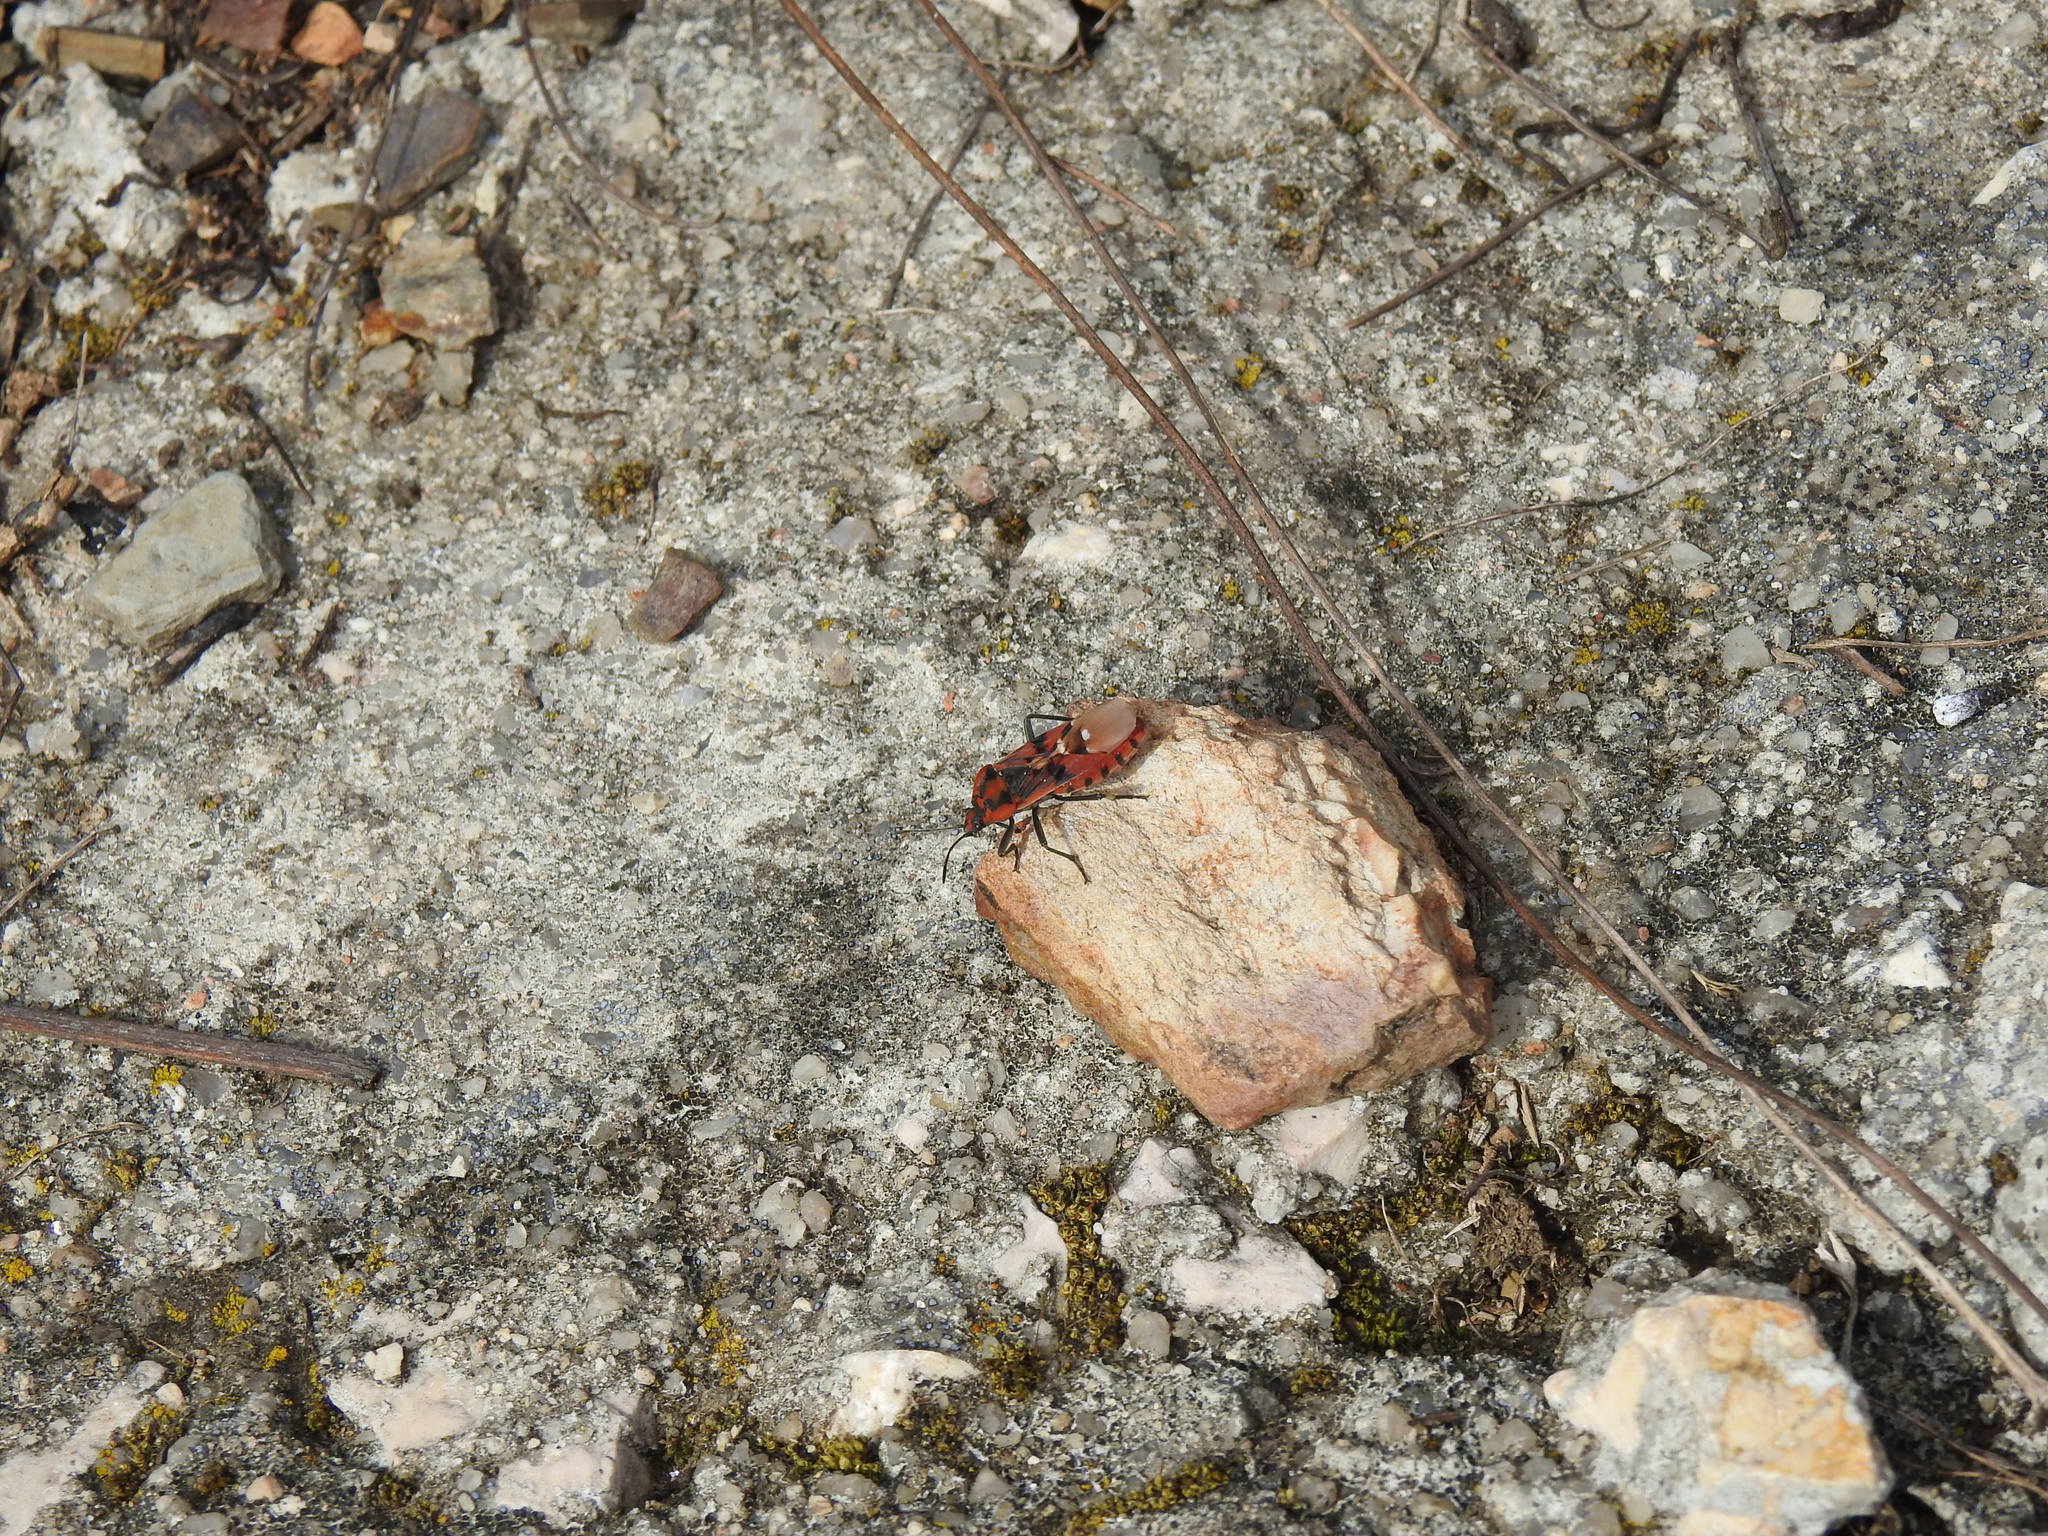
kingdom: Animalia
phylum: Arthropoda
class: Insecta
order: Hemiptera
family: Lygaeidae
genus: Spilostethus
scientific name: Spilostethus pandurus
